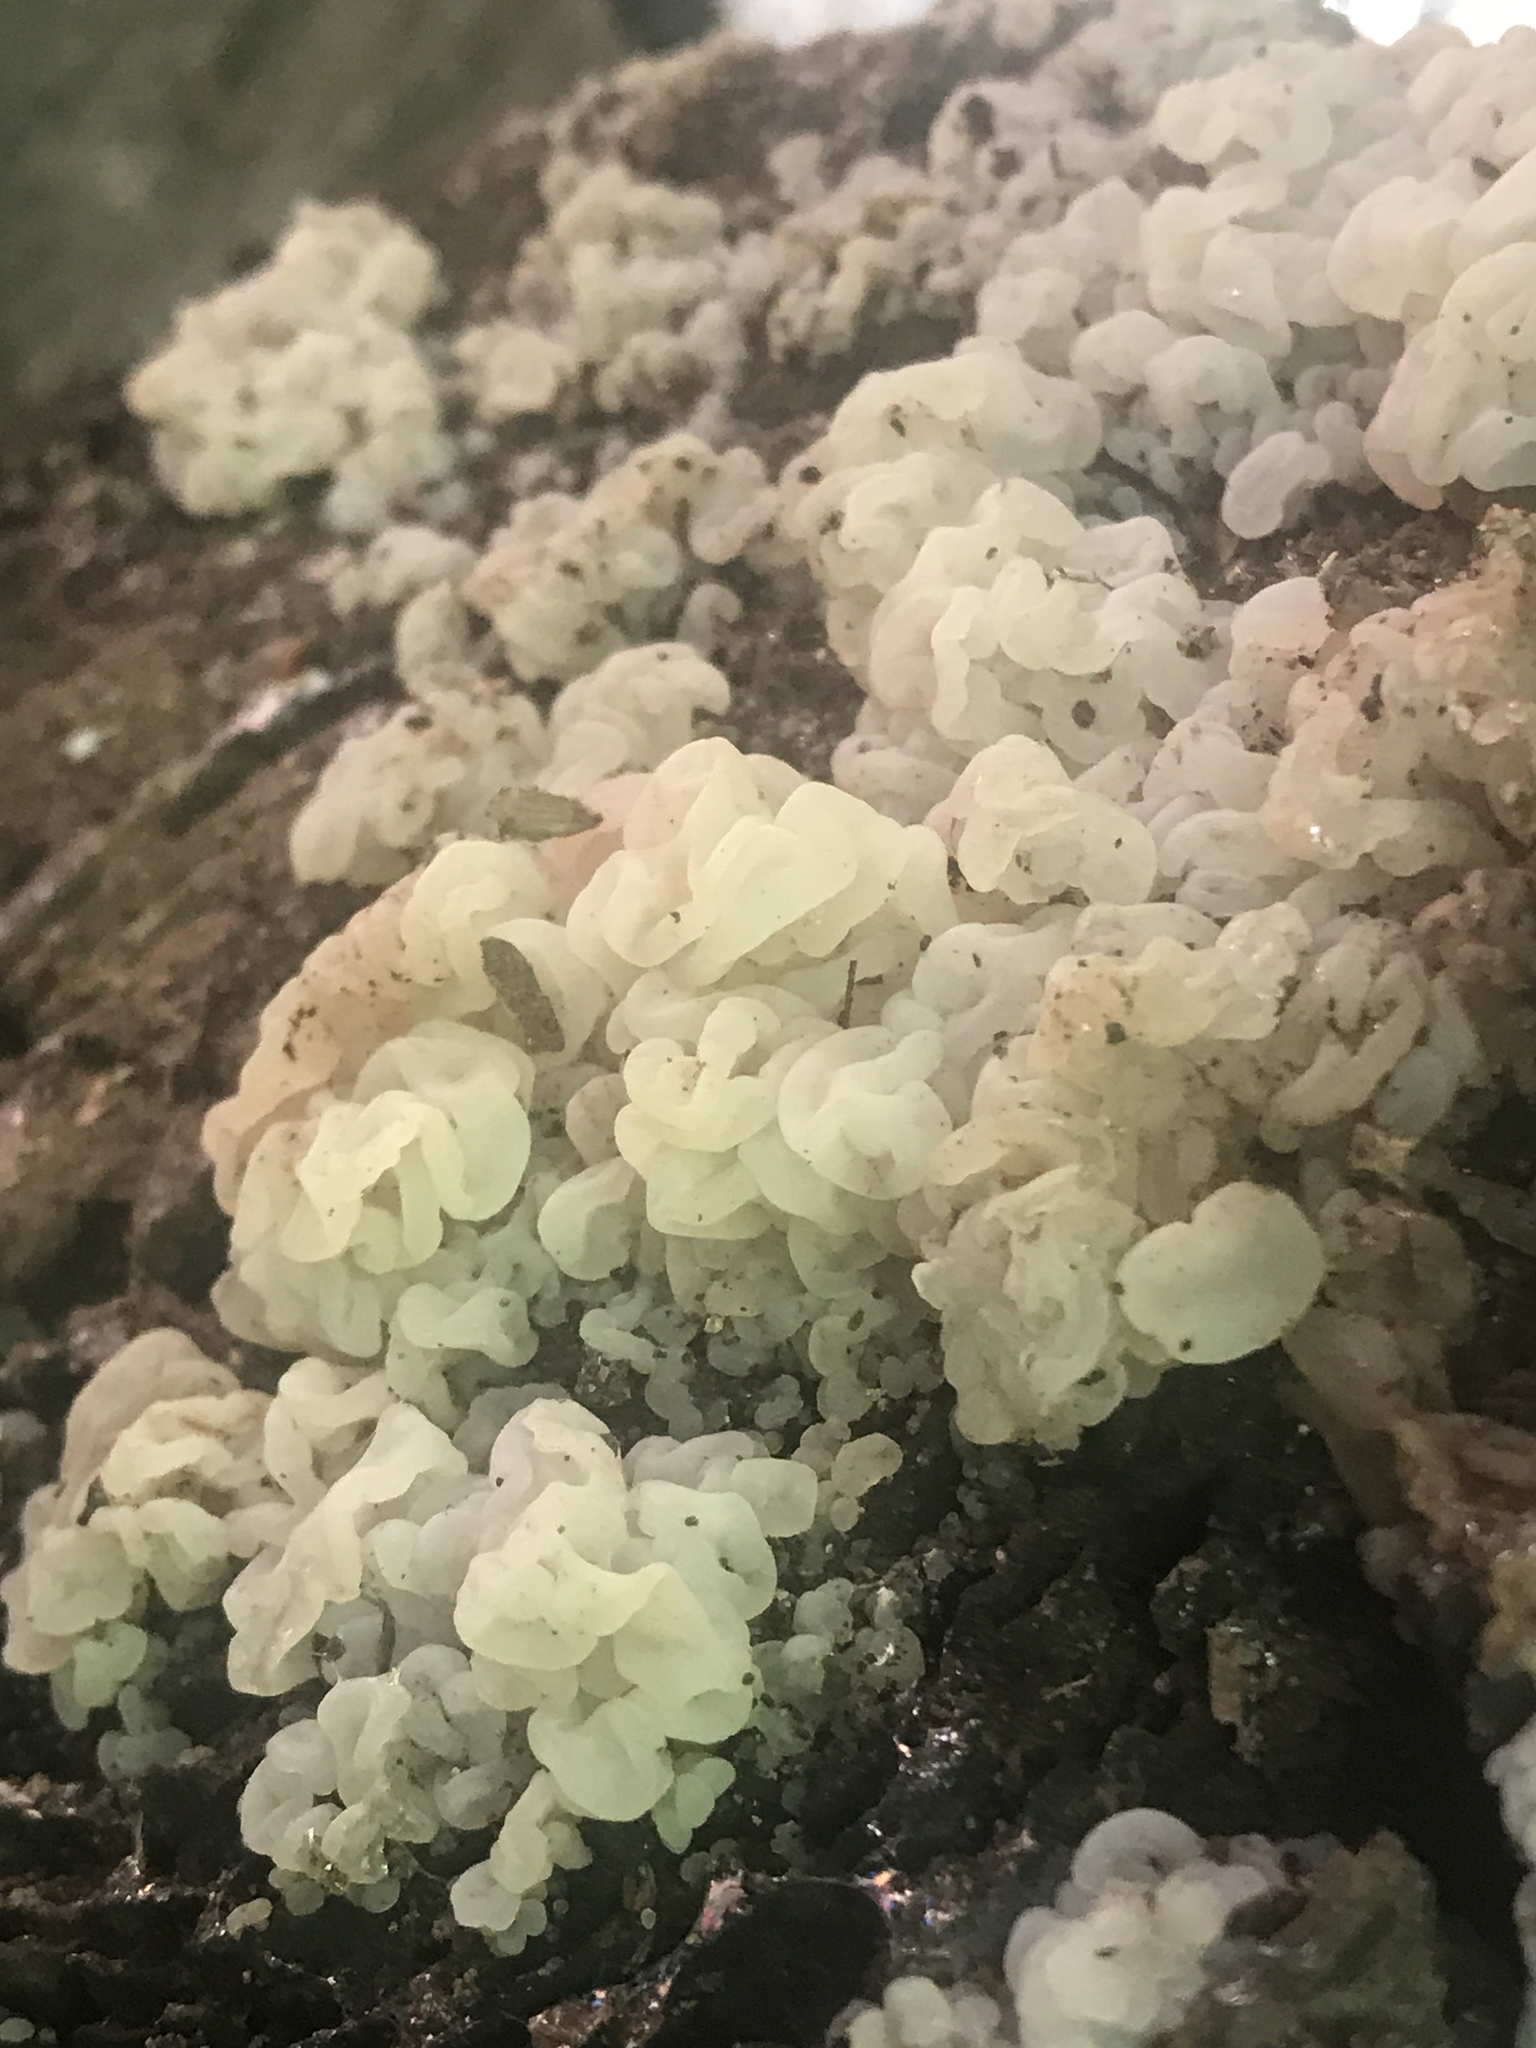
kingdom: Fungi
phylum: Basidiomycota
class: Agaricomycetes
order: Auriculariales
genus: Ductifera
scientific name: Ductifera pululahuana
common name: White jelly fungus
